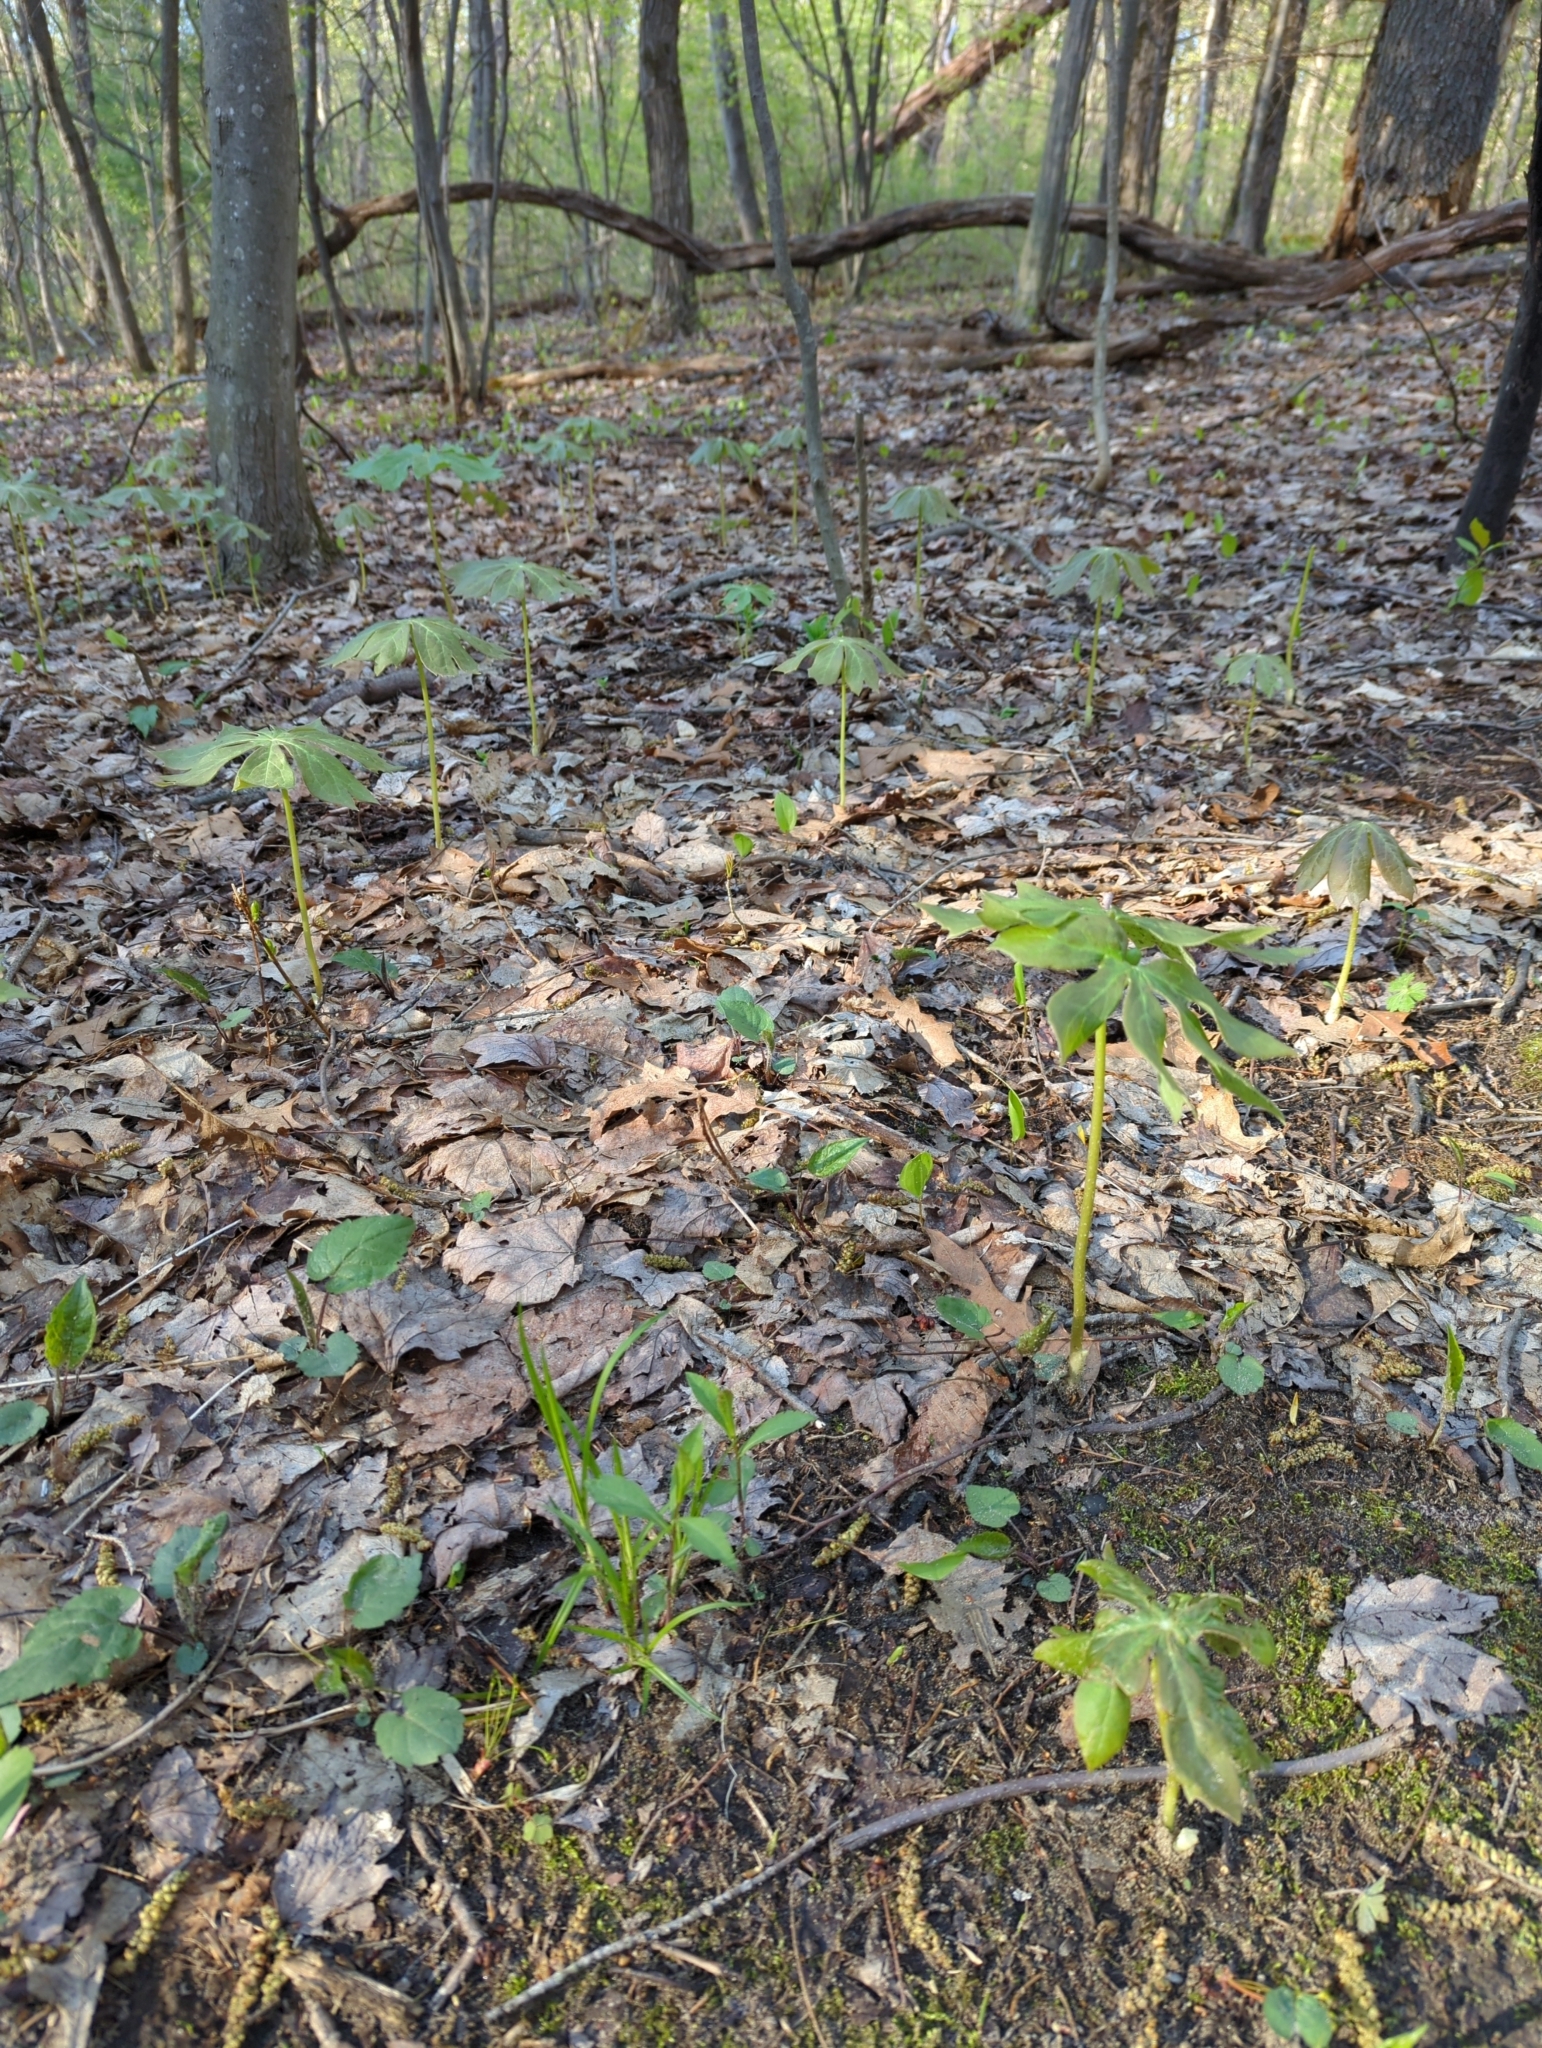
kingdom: Plantae
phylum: Tracheophyta
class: Magnoliopsida
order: Ranunculales
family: Berberidaceae
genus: Podophyllum
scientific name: Podophyllum peltatum
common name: Wild mandrake
